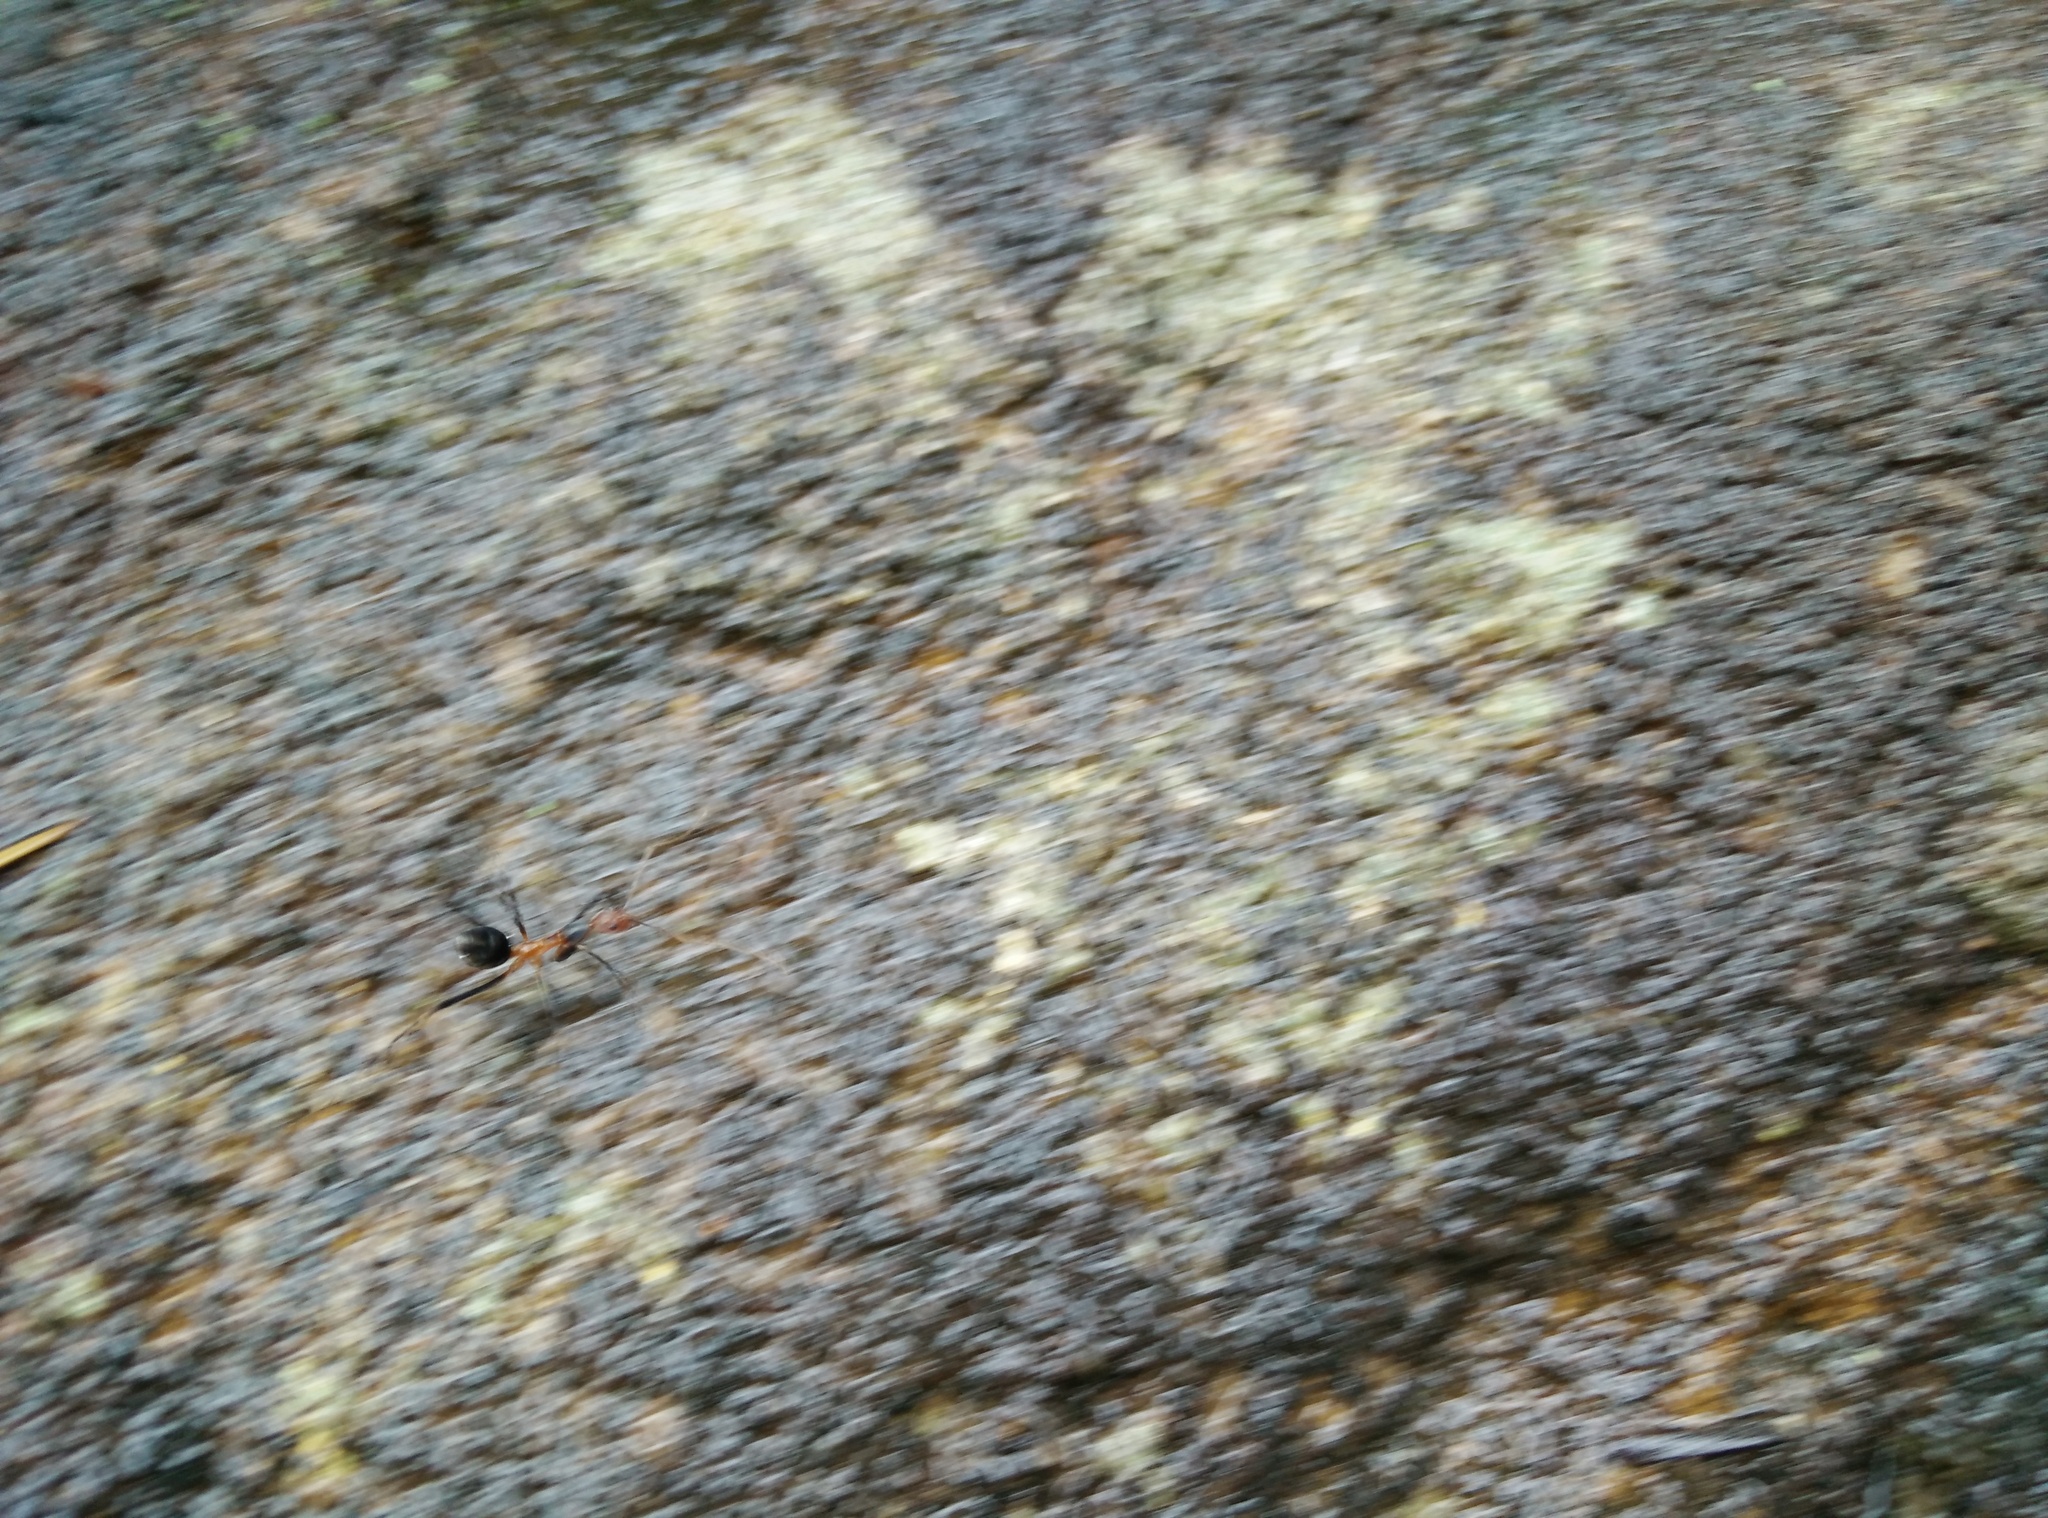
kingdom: Animalia
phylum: Arthropoda
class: Insecta
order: Hymenoptera
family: Formicidae
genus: Leptomyrmex
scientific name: Leptomyrmex wiburdi
